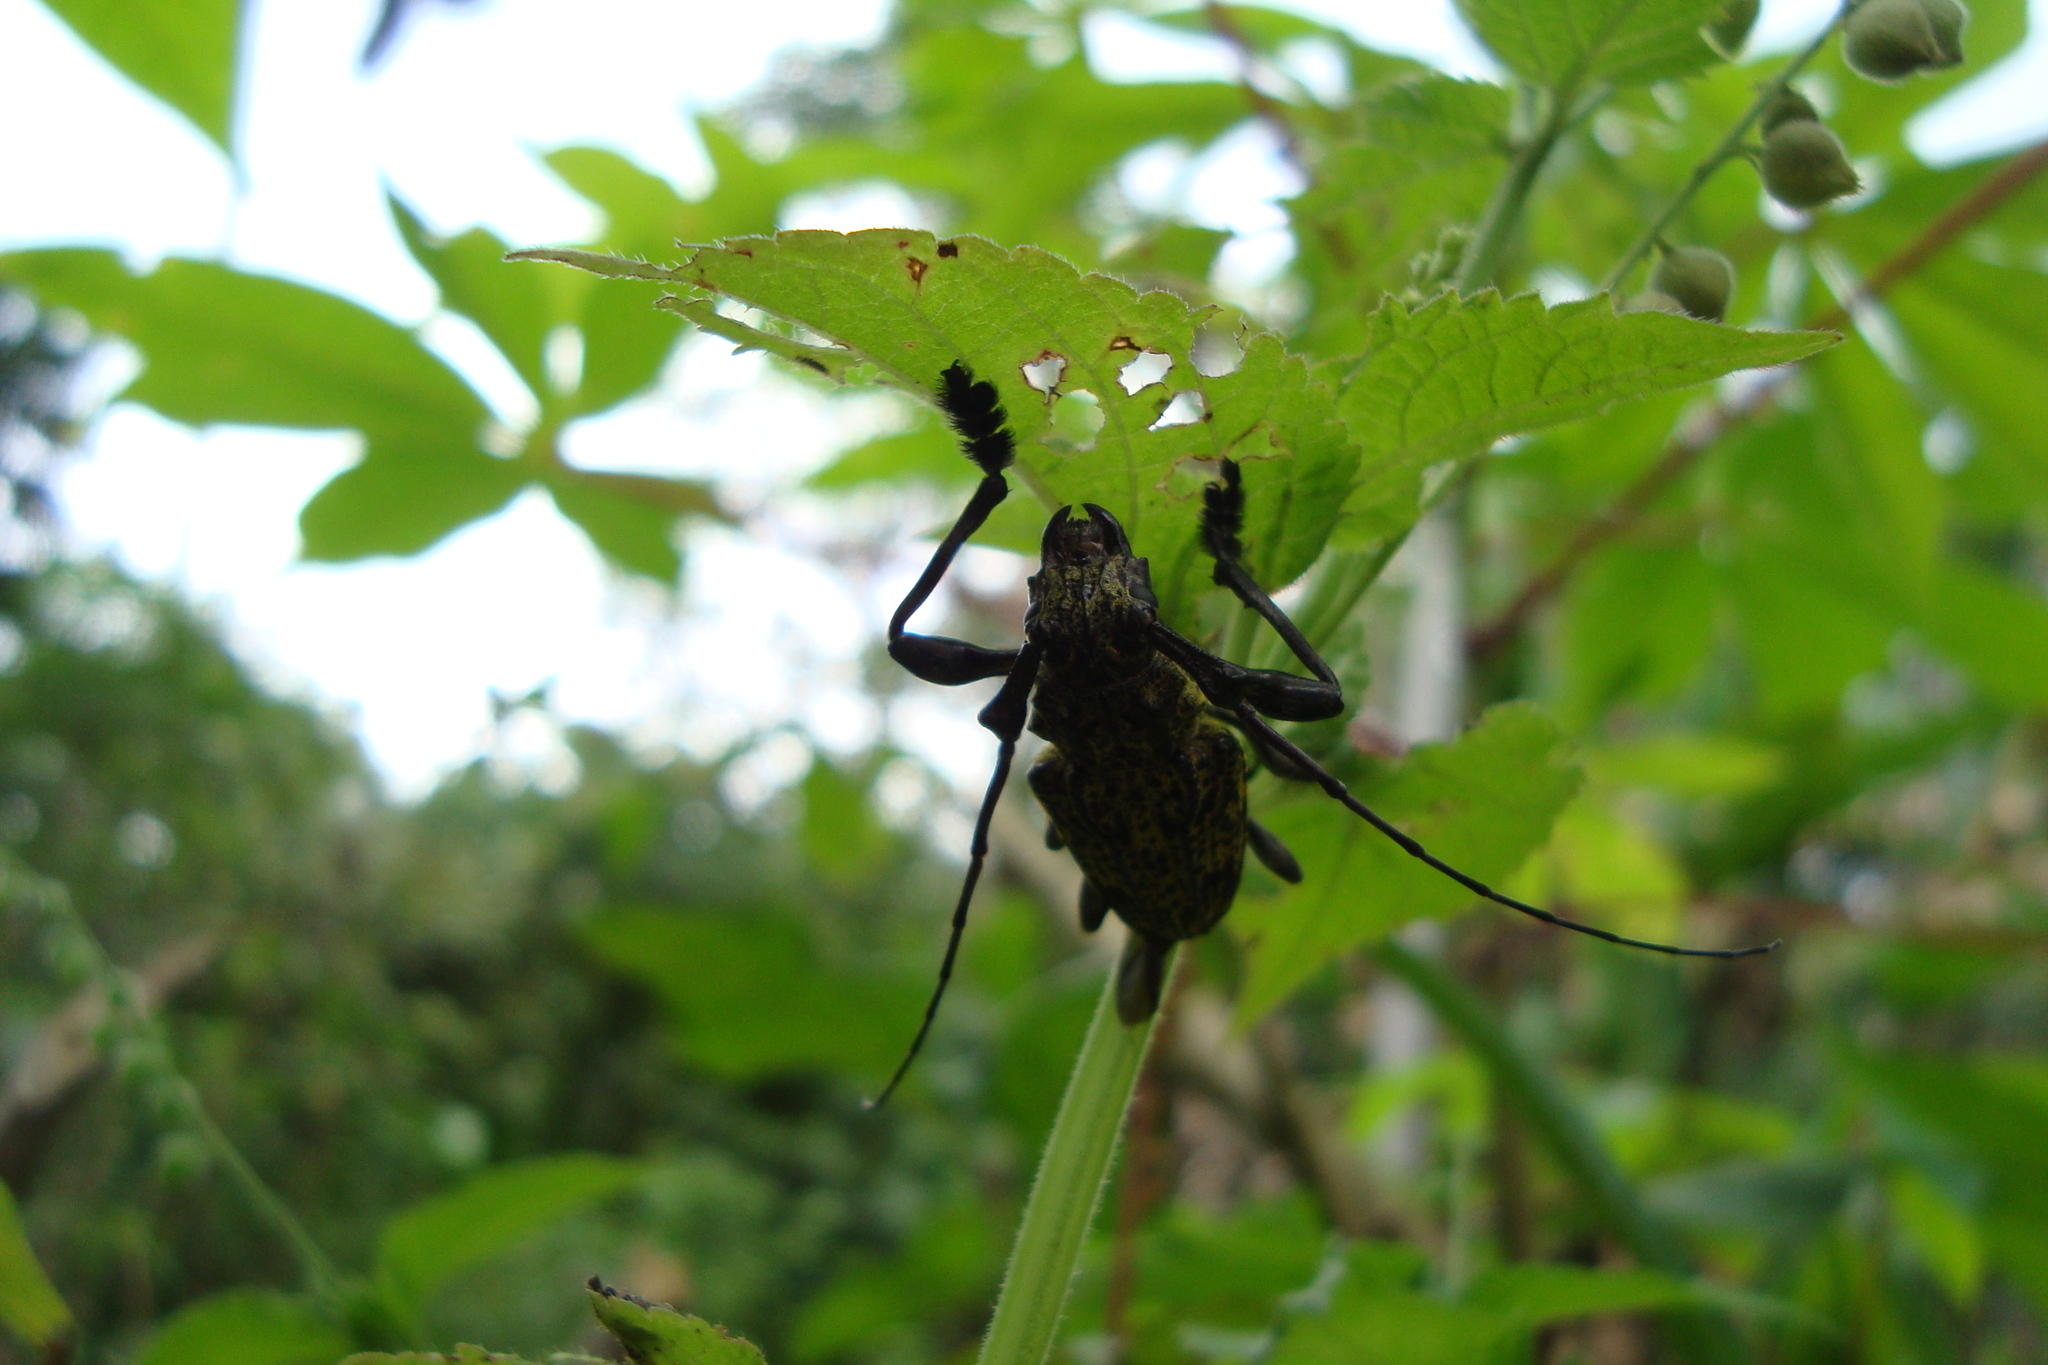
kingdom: Animalia
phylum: Arthropoda
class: Insecta
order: Coleoptera
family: Cerambycidae
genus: Steirastoma
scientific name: Steirastoma breve
